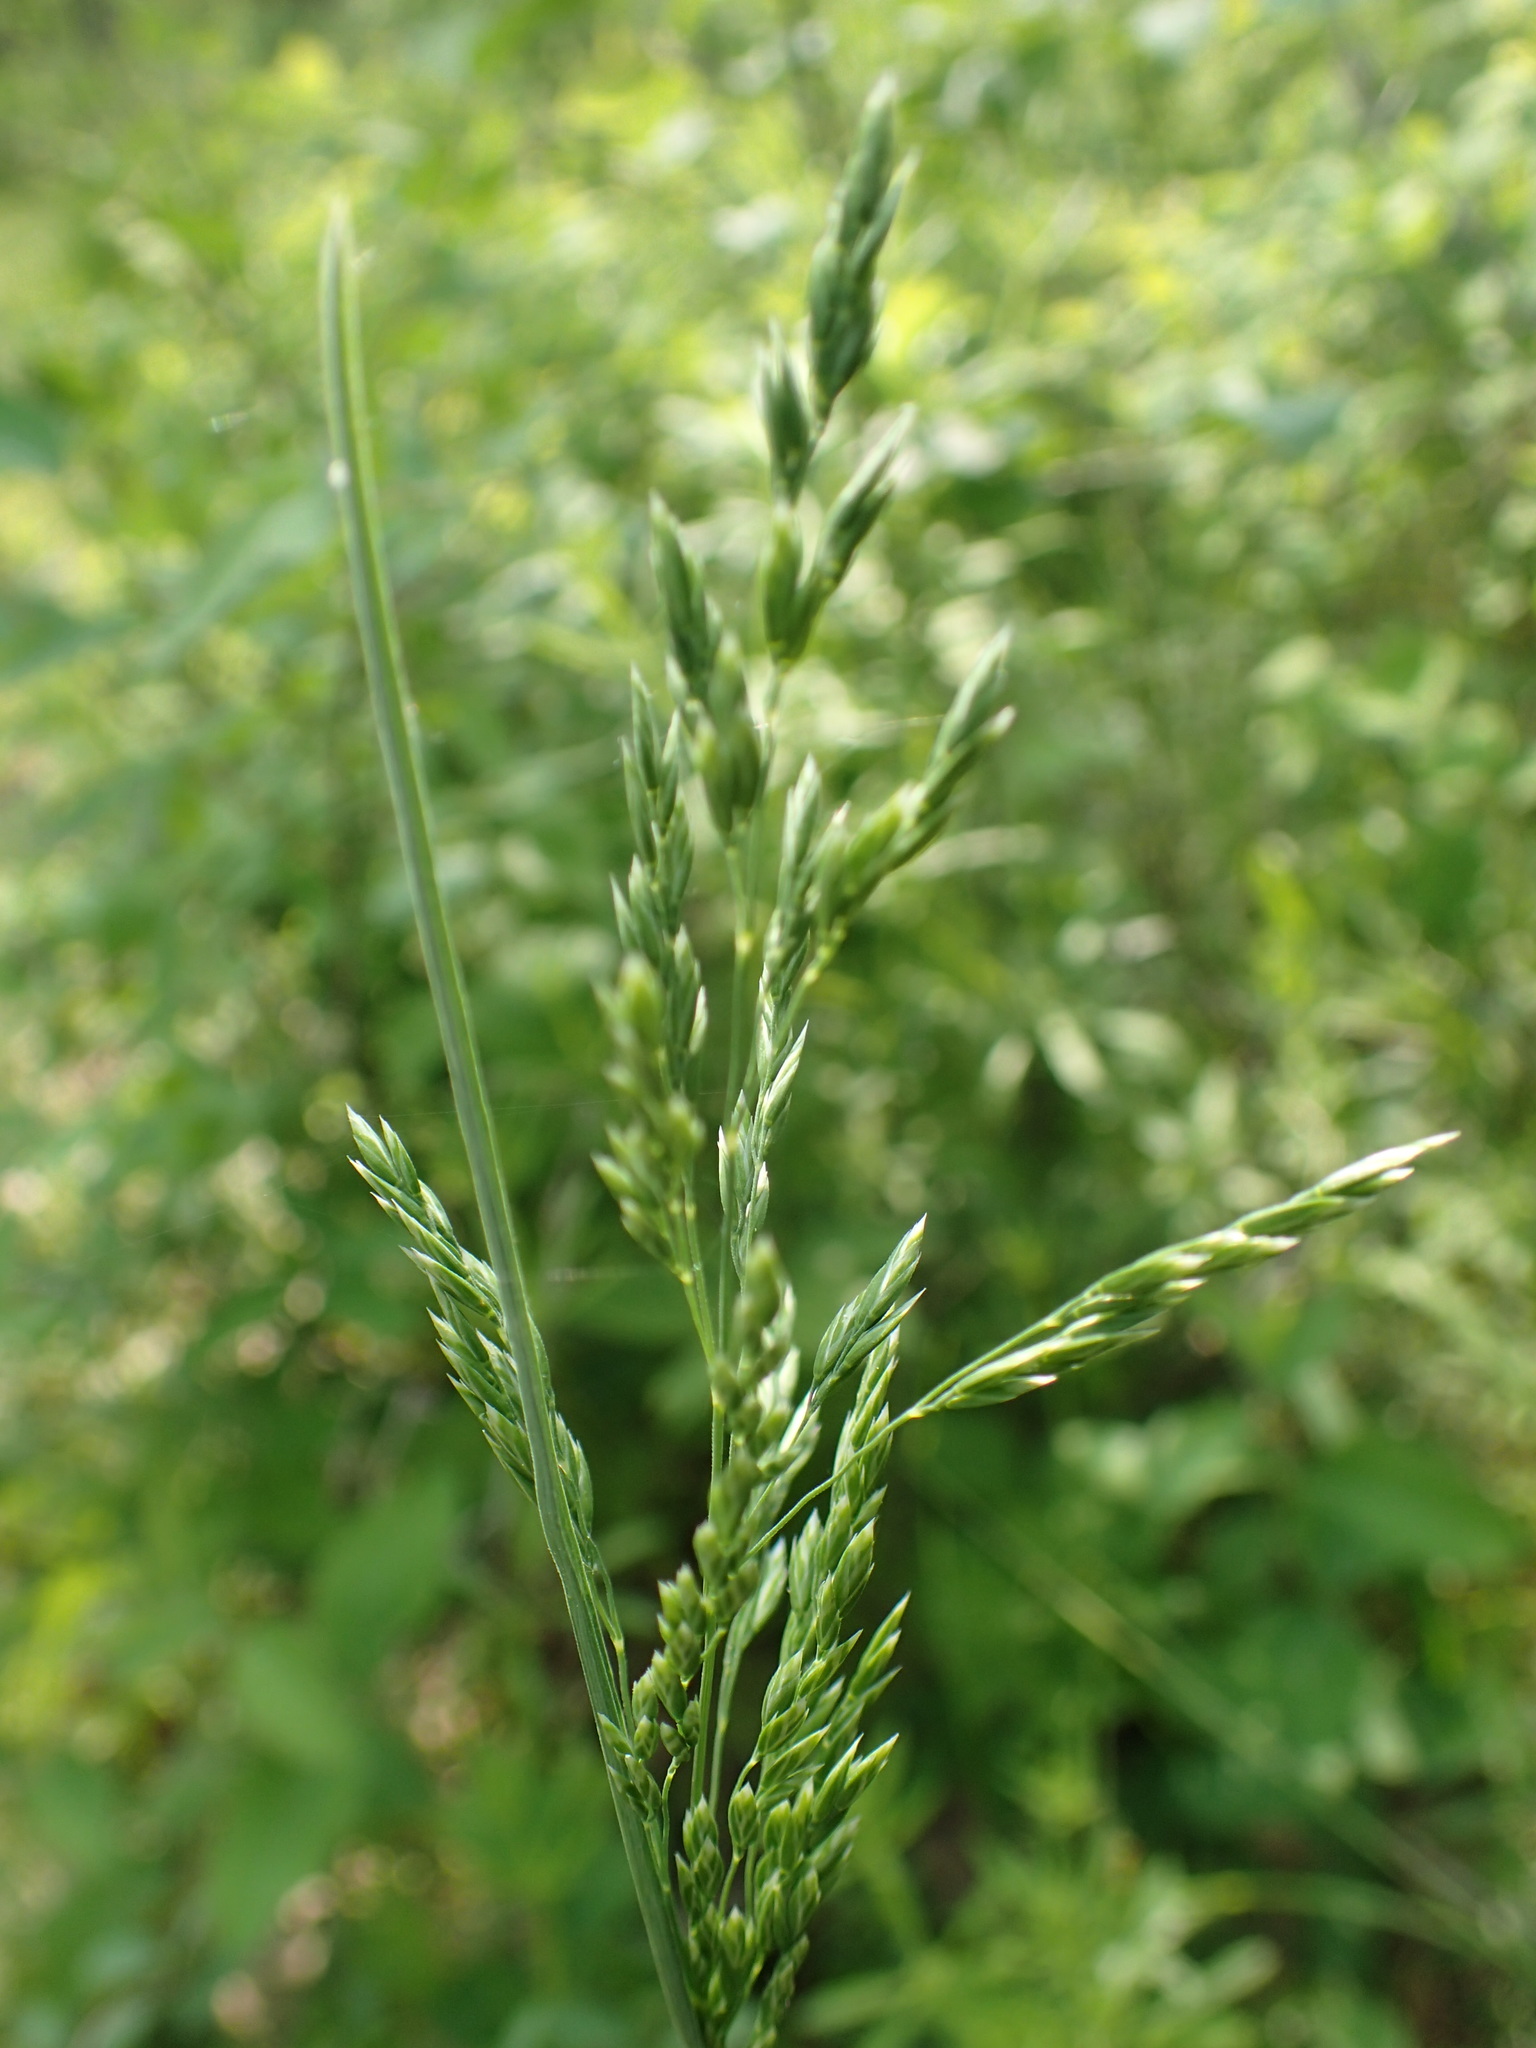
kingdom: Plantae
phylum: Tracheophyta
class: Liliopsida
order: Poales
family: Poaceae
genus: Poa
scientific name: Poa pratensis
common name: Kentucky bluegrass
